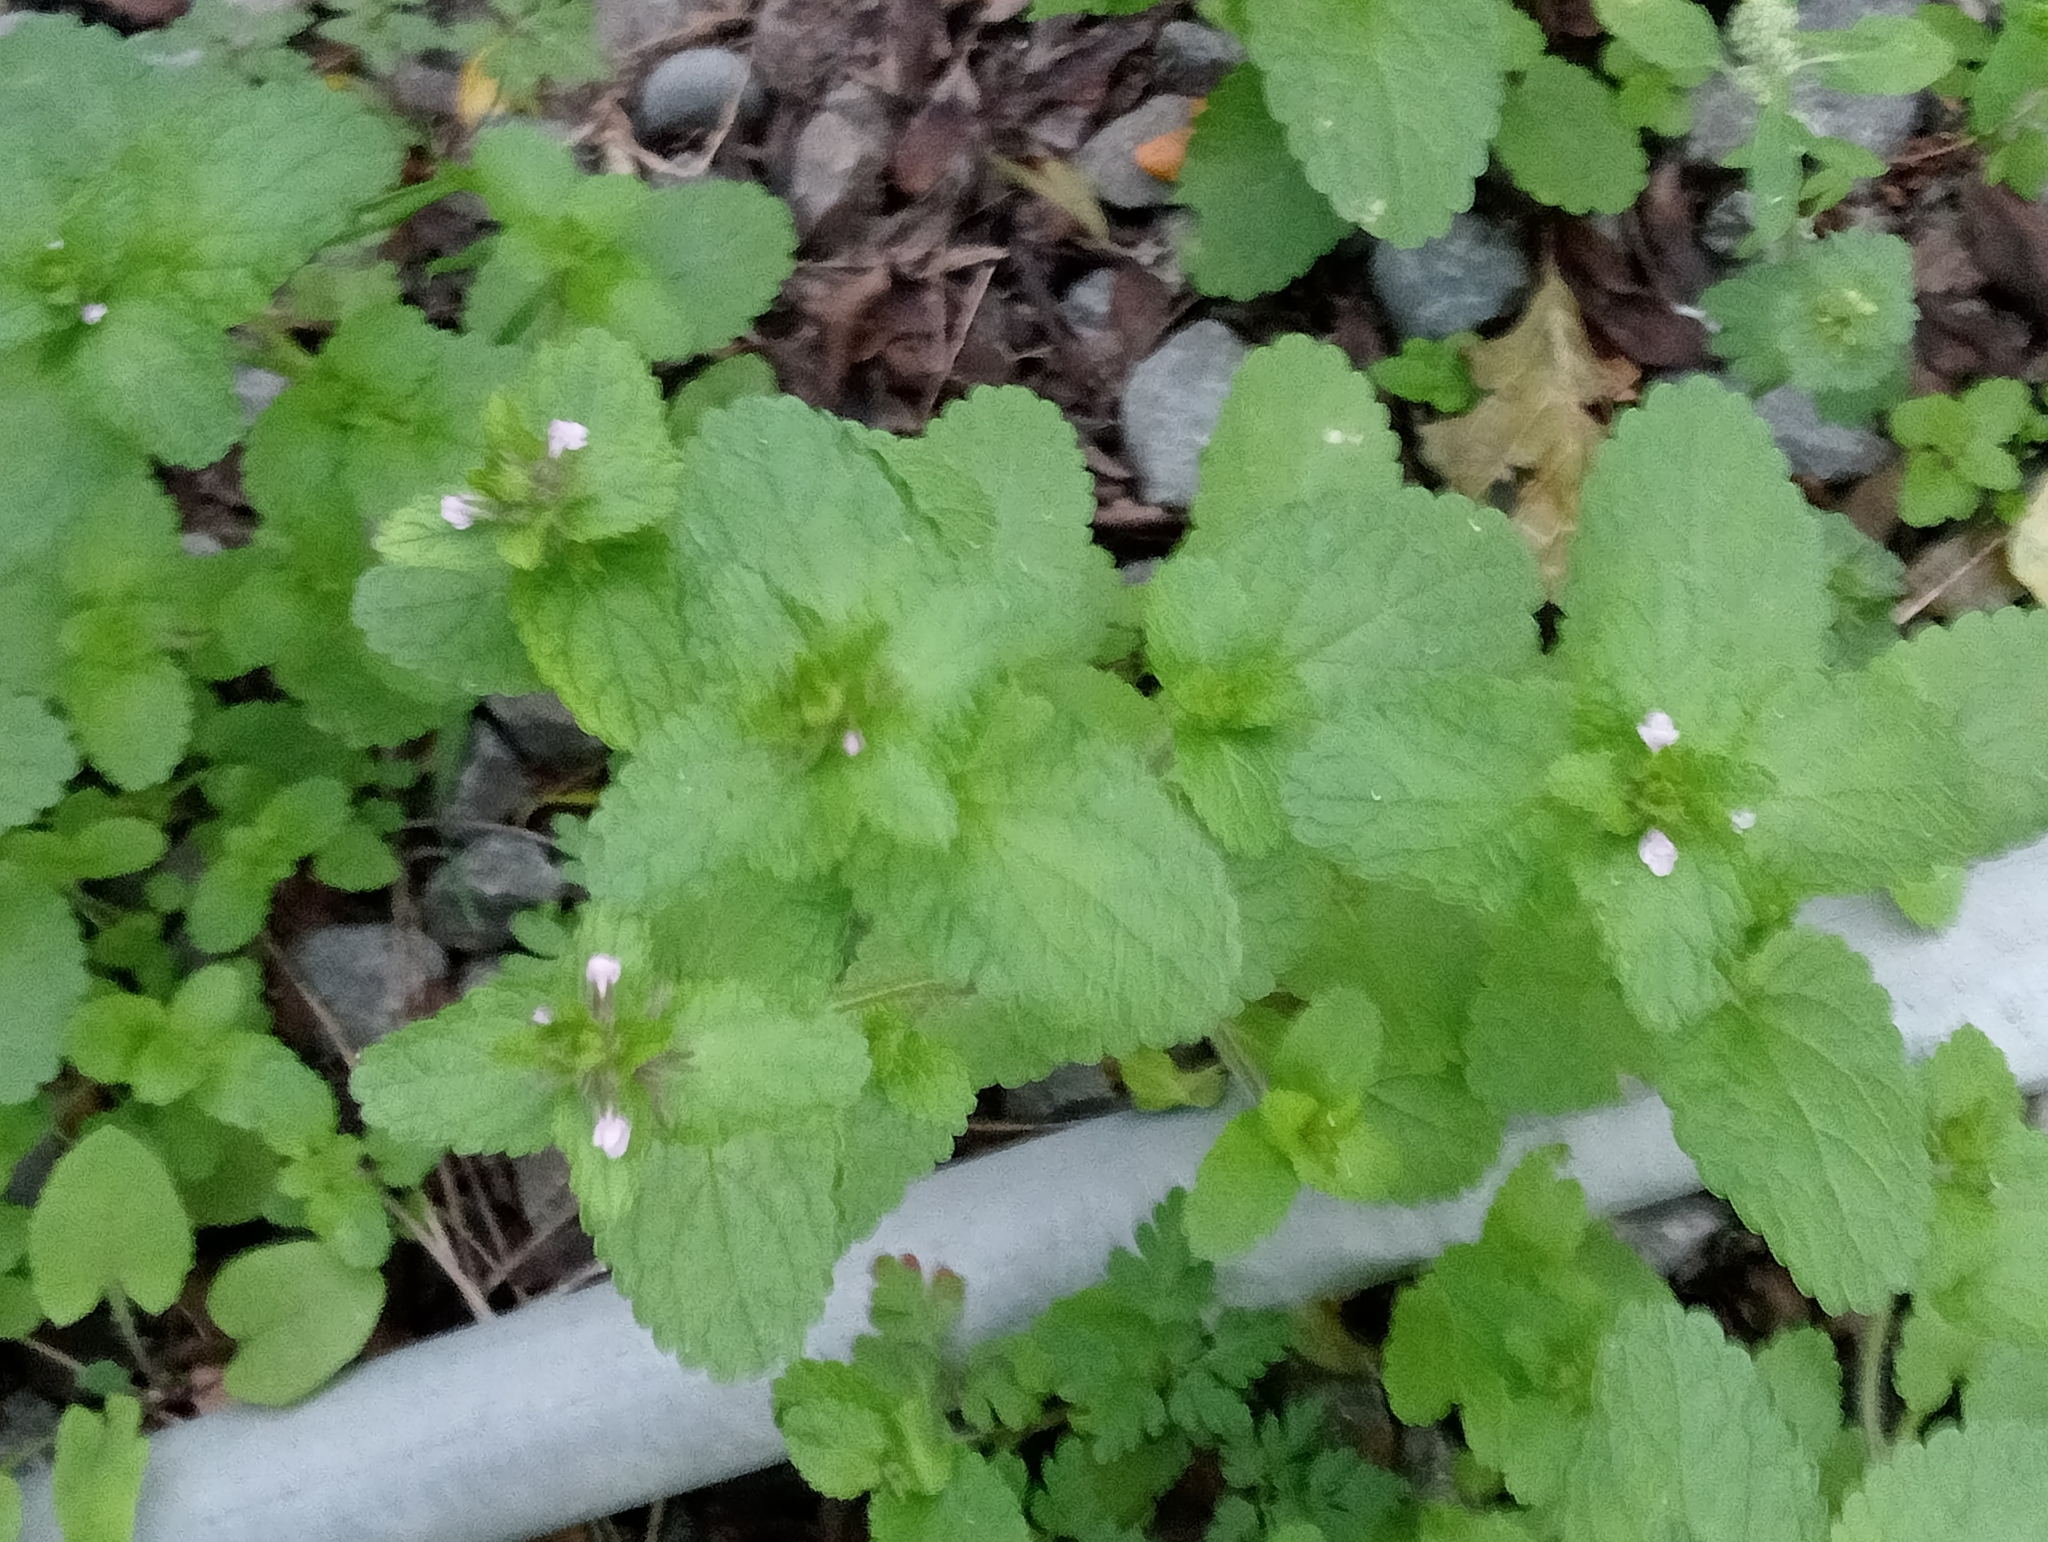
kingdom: Plantae
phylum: Tracheophyta
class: Magnoliopsida
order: Lamiales
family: Lamiaceae
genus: Stachys
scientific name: Stachys arvensis
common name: Field woundwort
